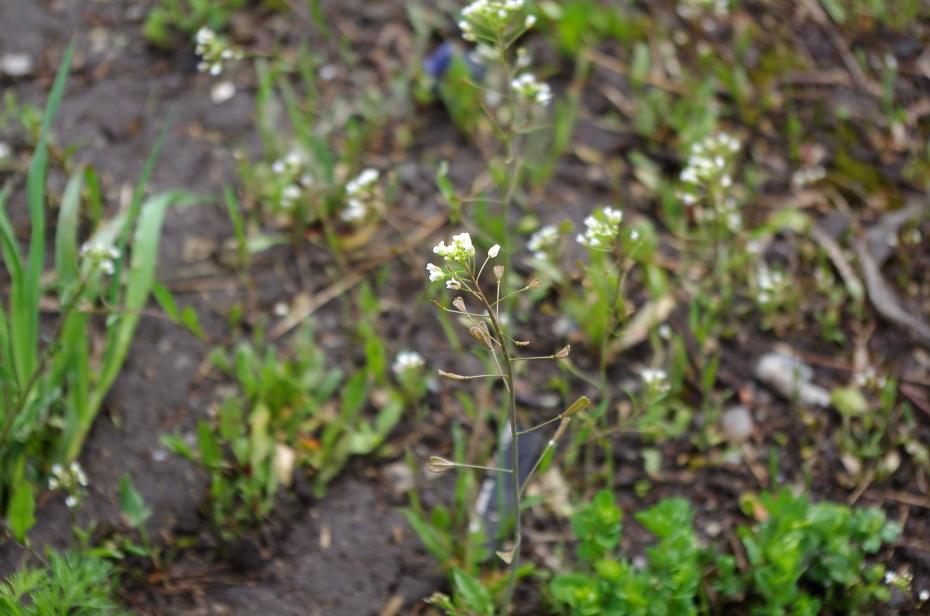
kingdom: Plantae
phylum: Tracheophyta
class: Magnoliopsida
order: Brassicales
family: Brassicaceae
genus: Capsella
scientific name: Capsella bursa-pastoris
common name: Shepherd's purse
